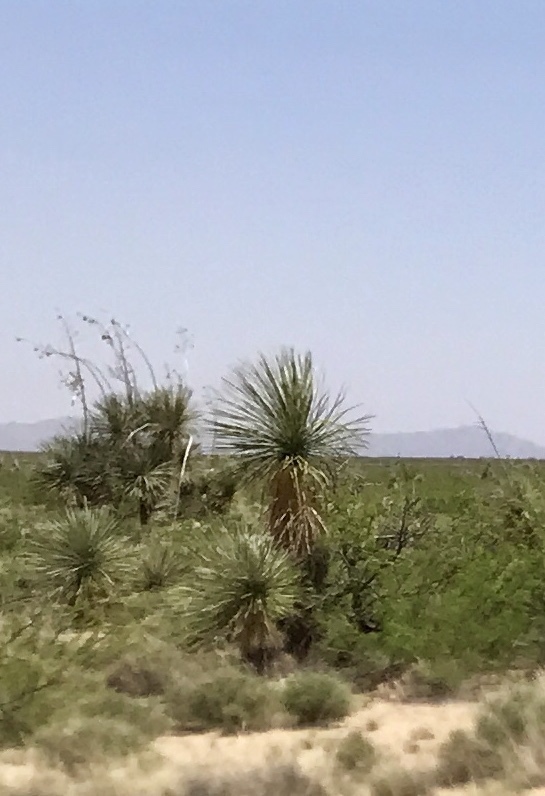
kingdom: Plantae
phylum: Tracheophyta
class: Liliopsida
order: Asparagales
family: Asparagaceae
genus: Yucca
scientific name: Yucca elata
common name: Palmella
